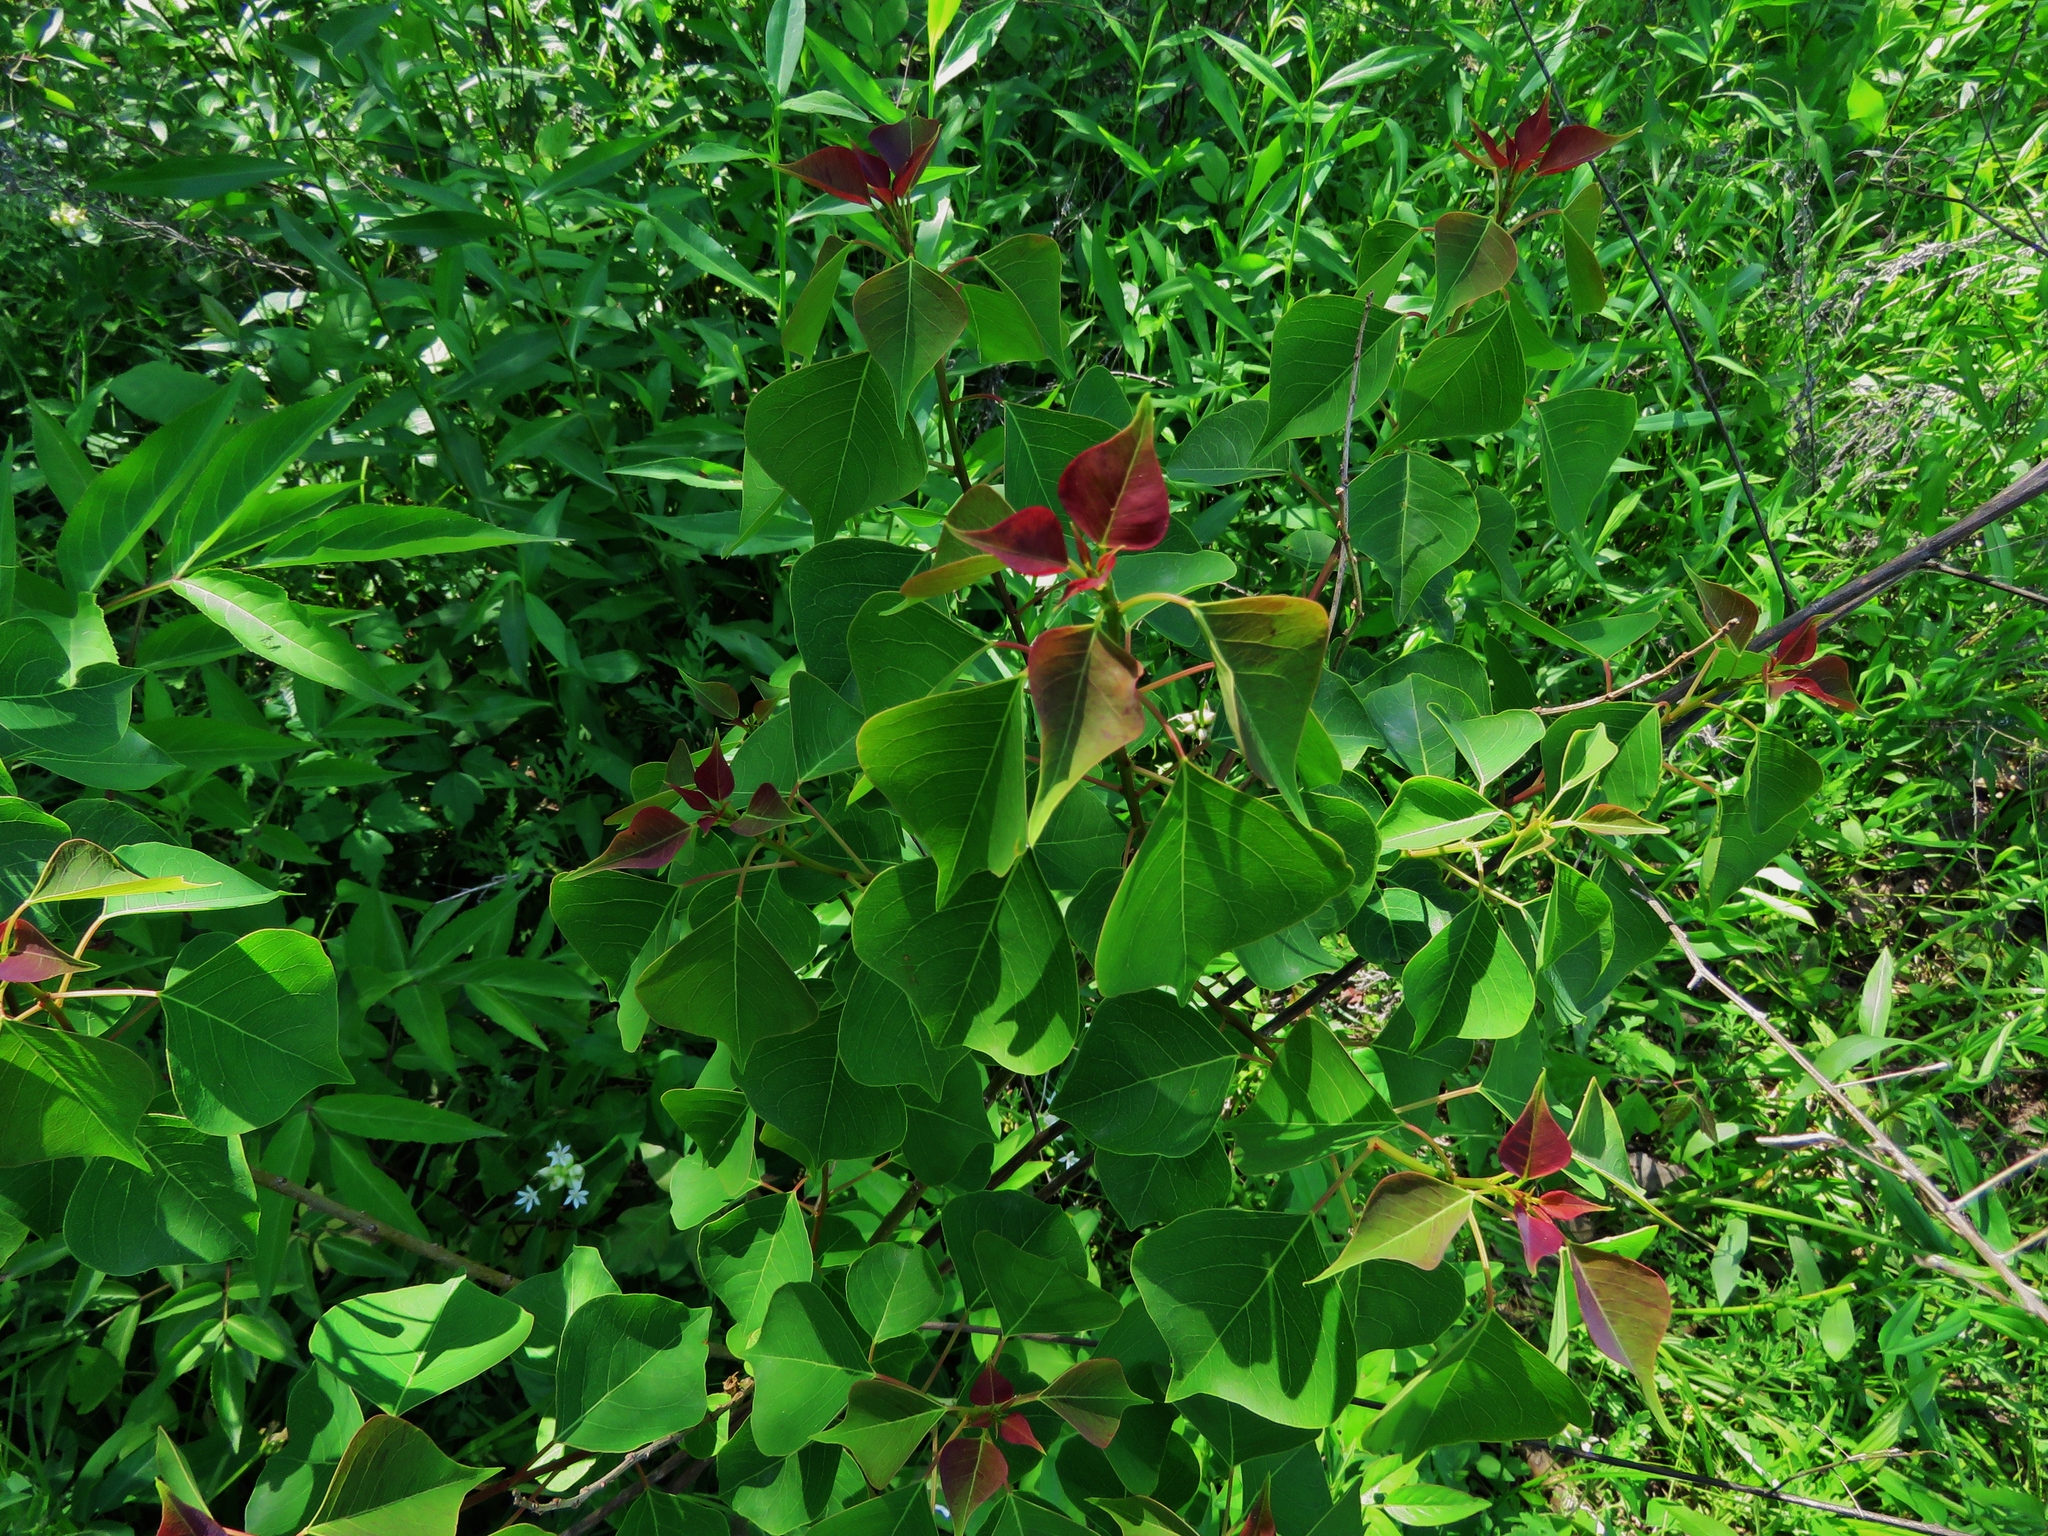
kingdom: Plantae
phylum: Tracheophyta
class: Magnoliopsida
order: Malpighiales
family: Euphorbiaceae
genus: Triadica
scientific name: Triadica sebifera
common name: Chinese tallow
